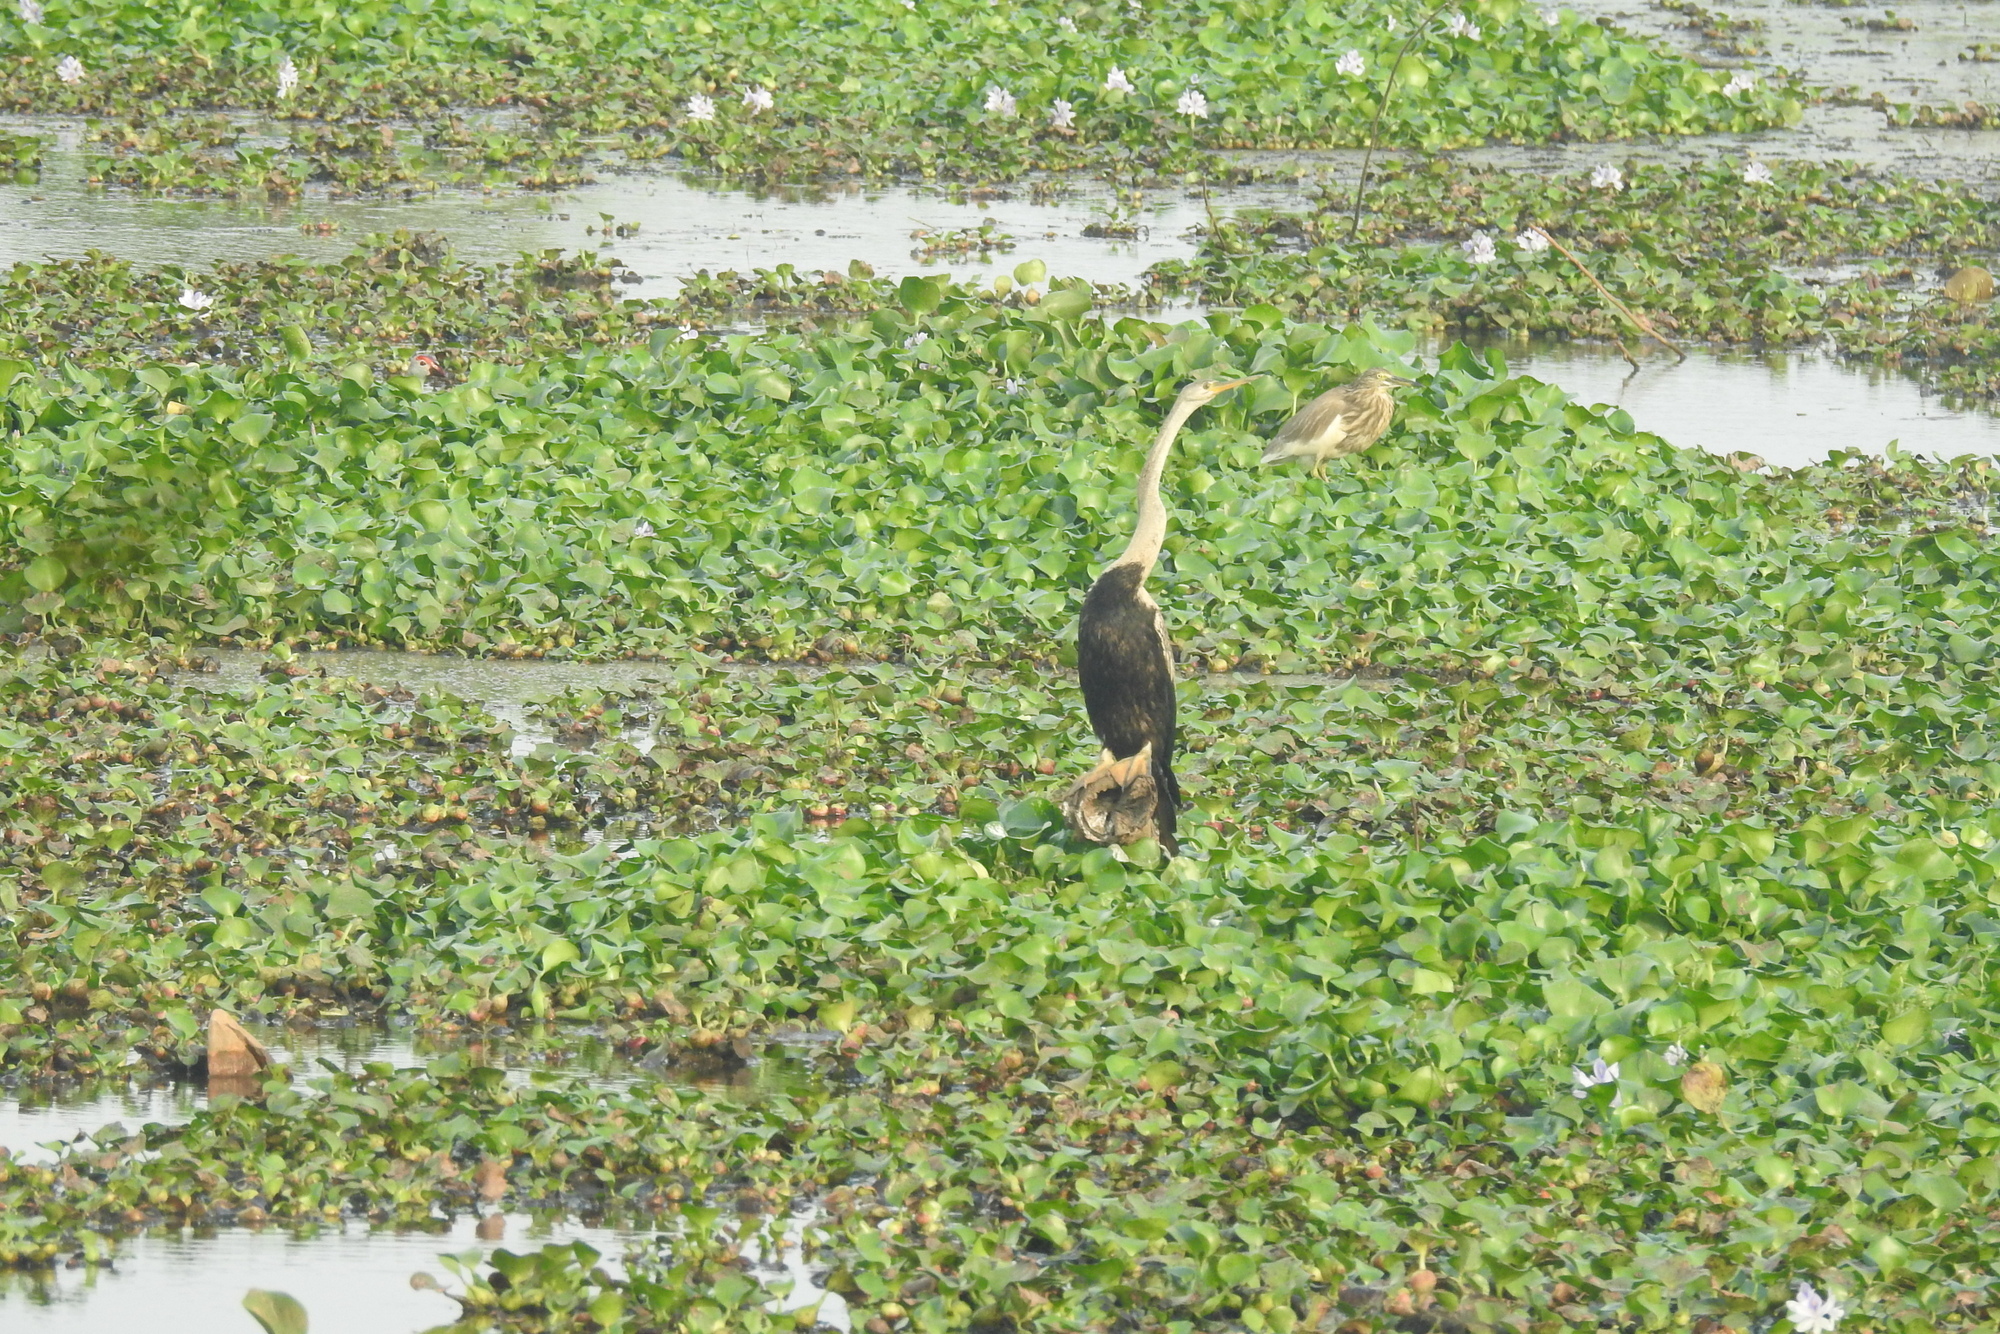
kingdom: Animalia
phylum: Chordata
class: Aves
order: Suliformes
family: Anhingidae
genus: Anhinga
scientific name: Anhinga melanogaster
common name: Oriental darter
